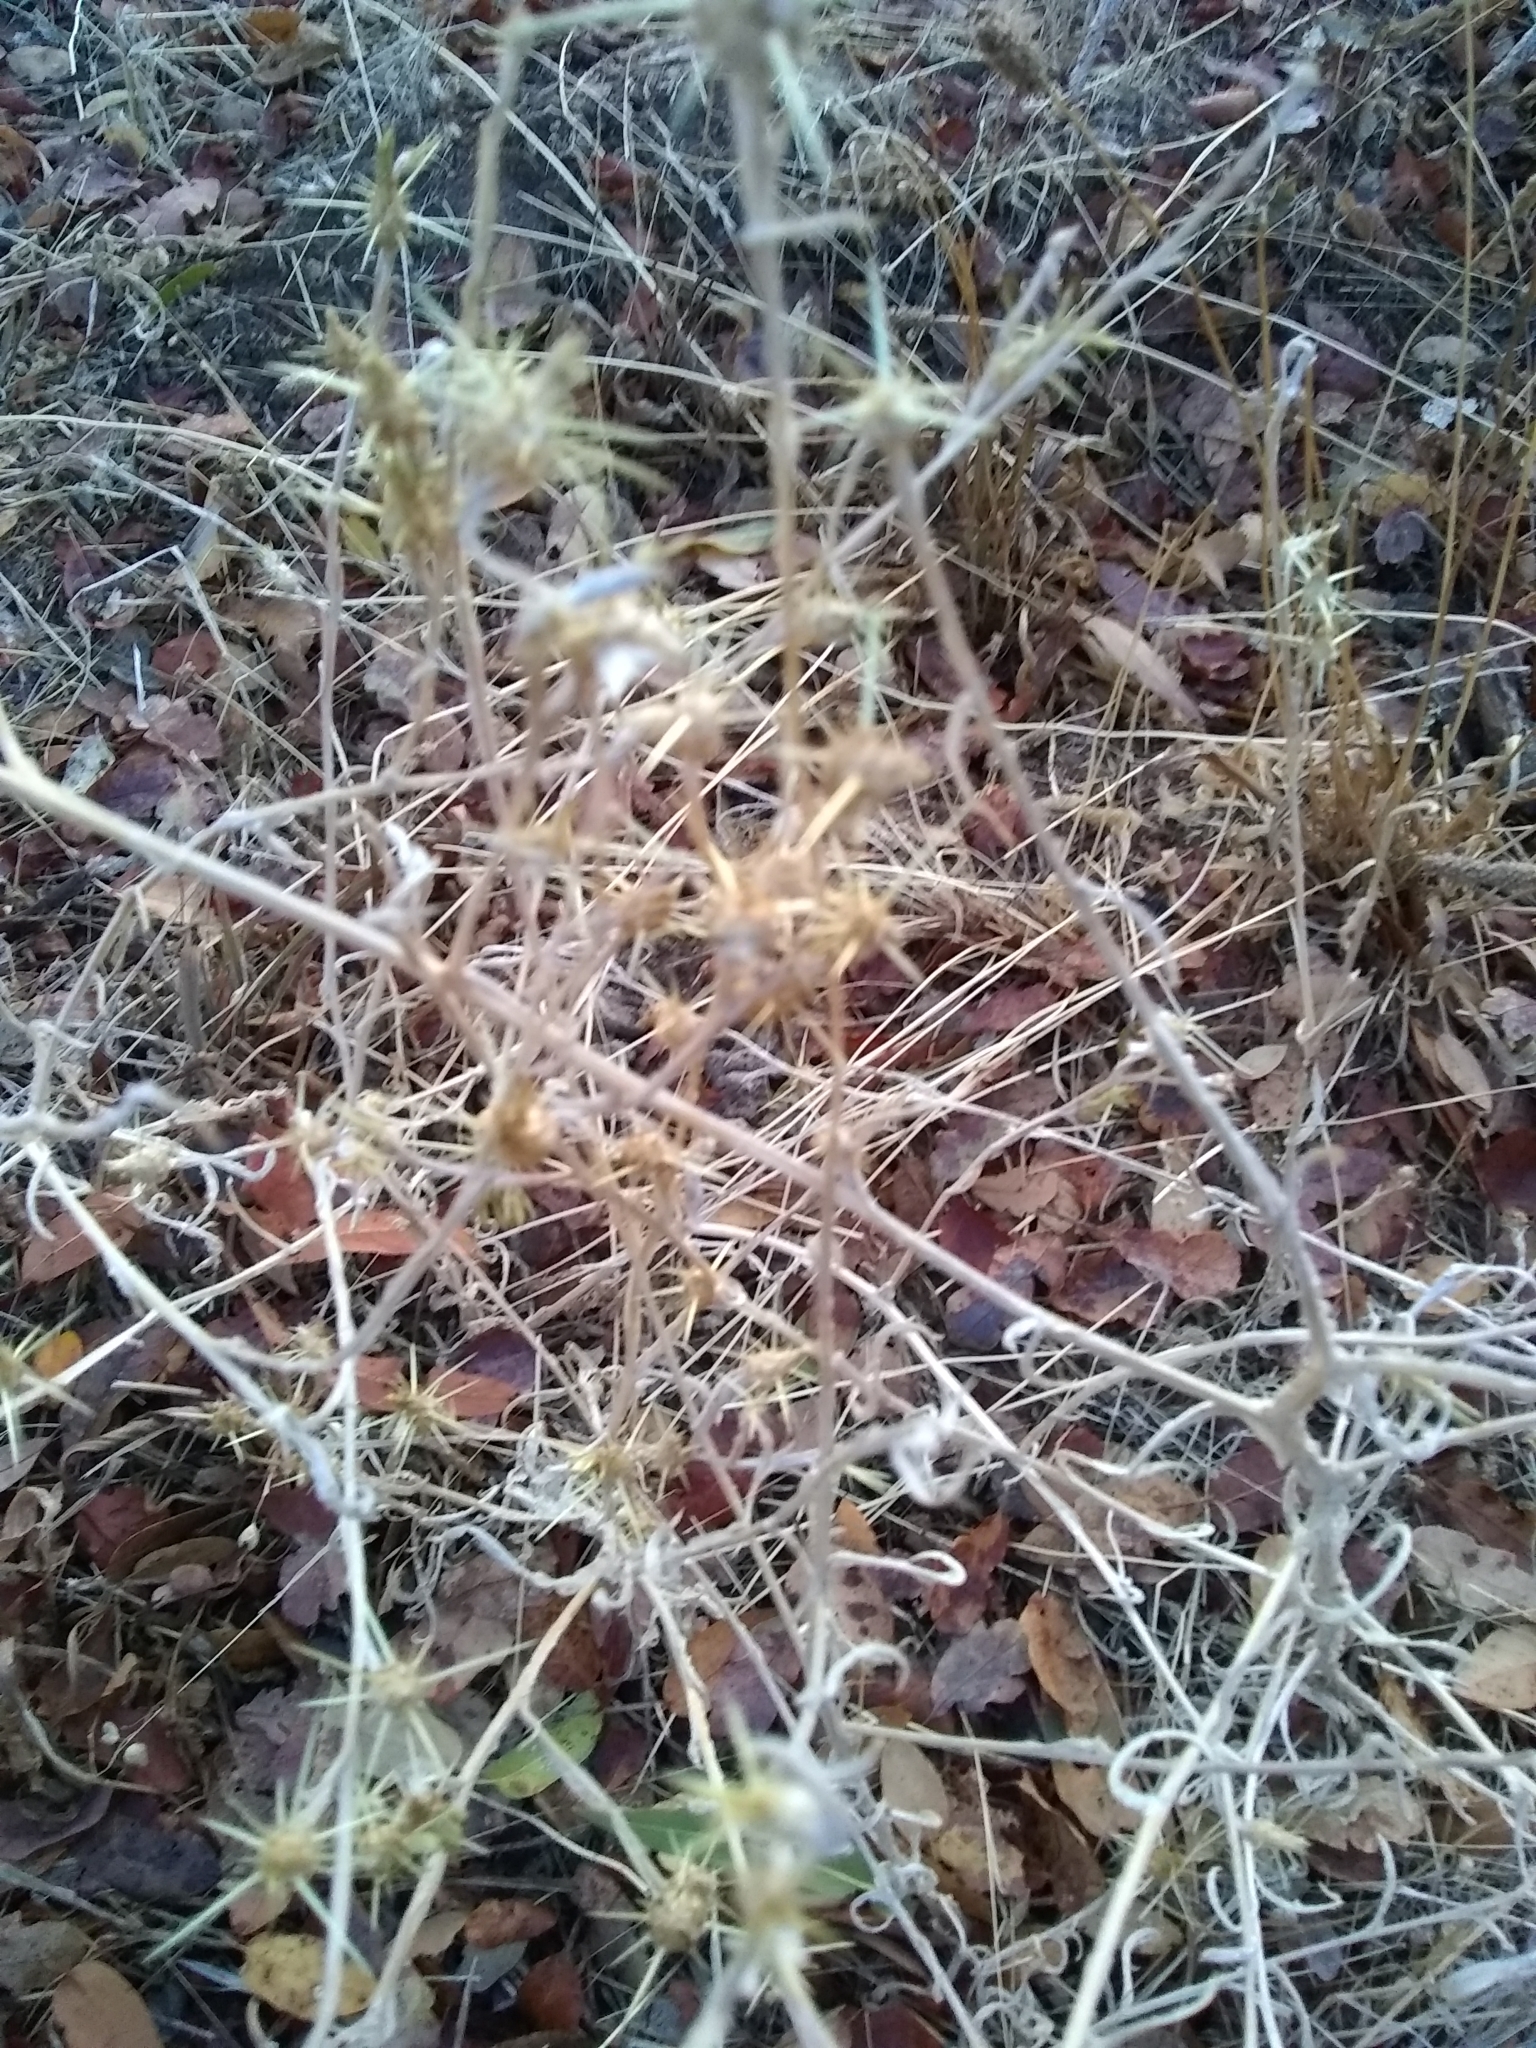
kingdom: Plantae
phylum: Tracheophyta
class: Magnoliopsida
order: Asterales
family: Asteraceae
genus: Centaurea
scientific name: Centaurea solstitialis
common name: Yellow star-thistle
